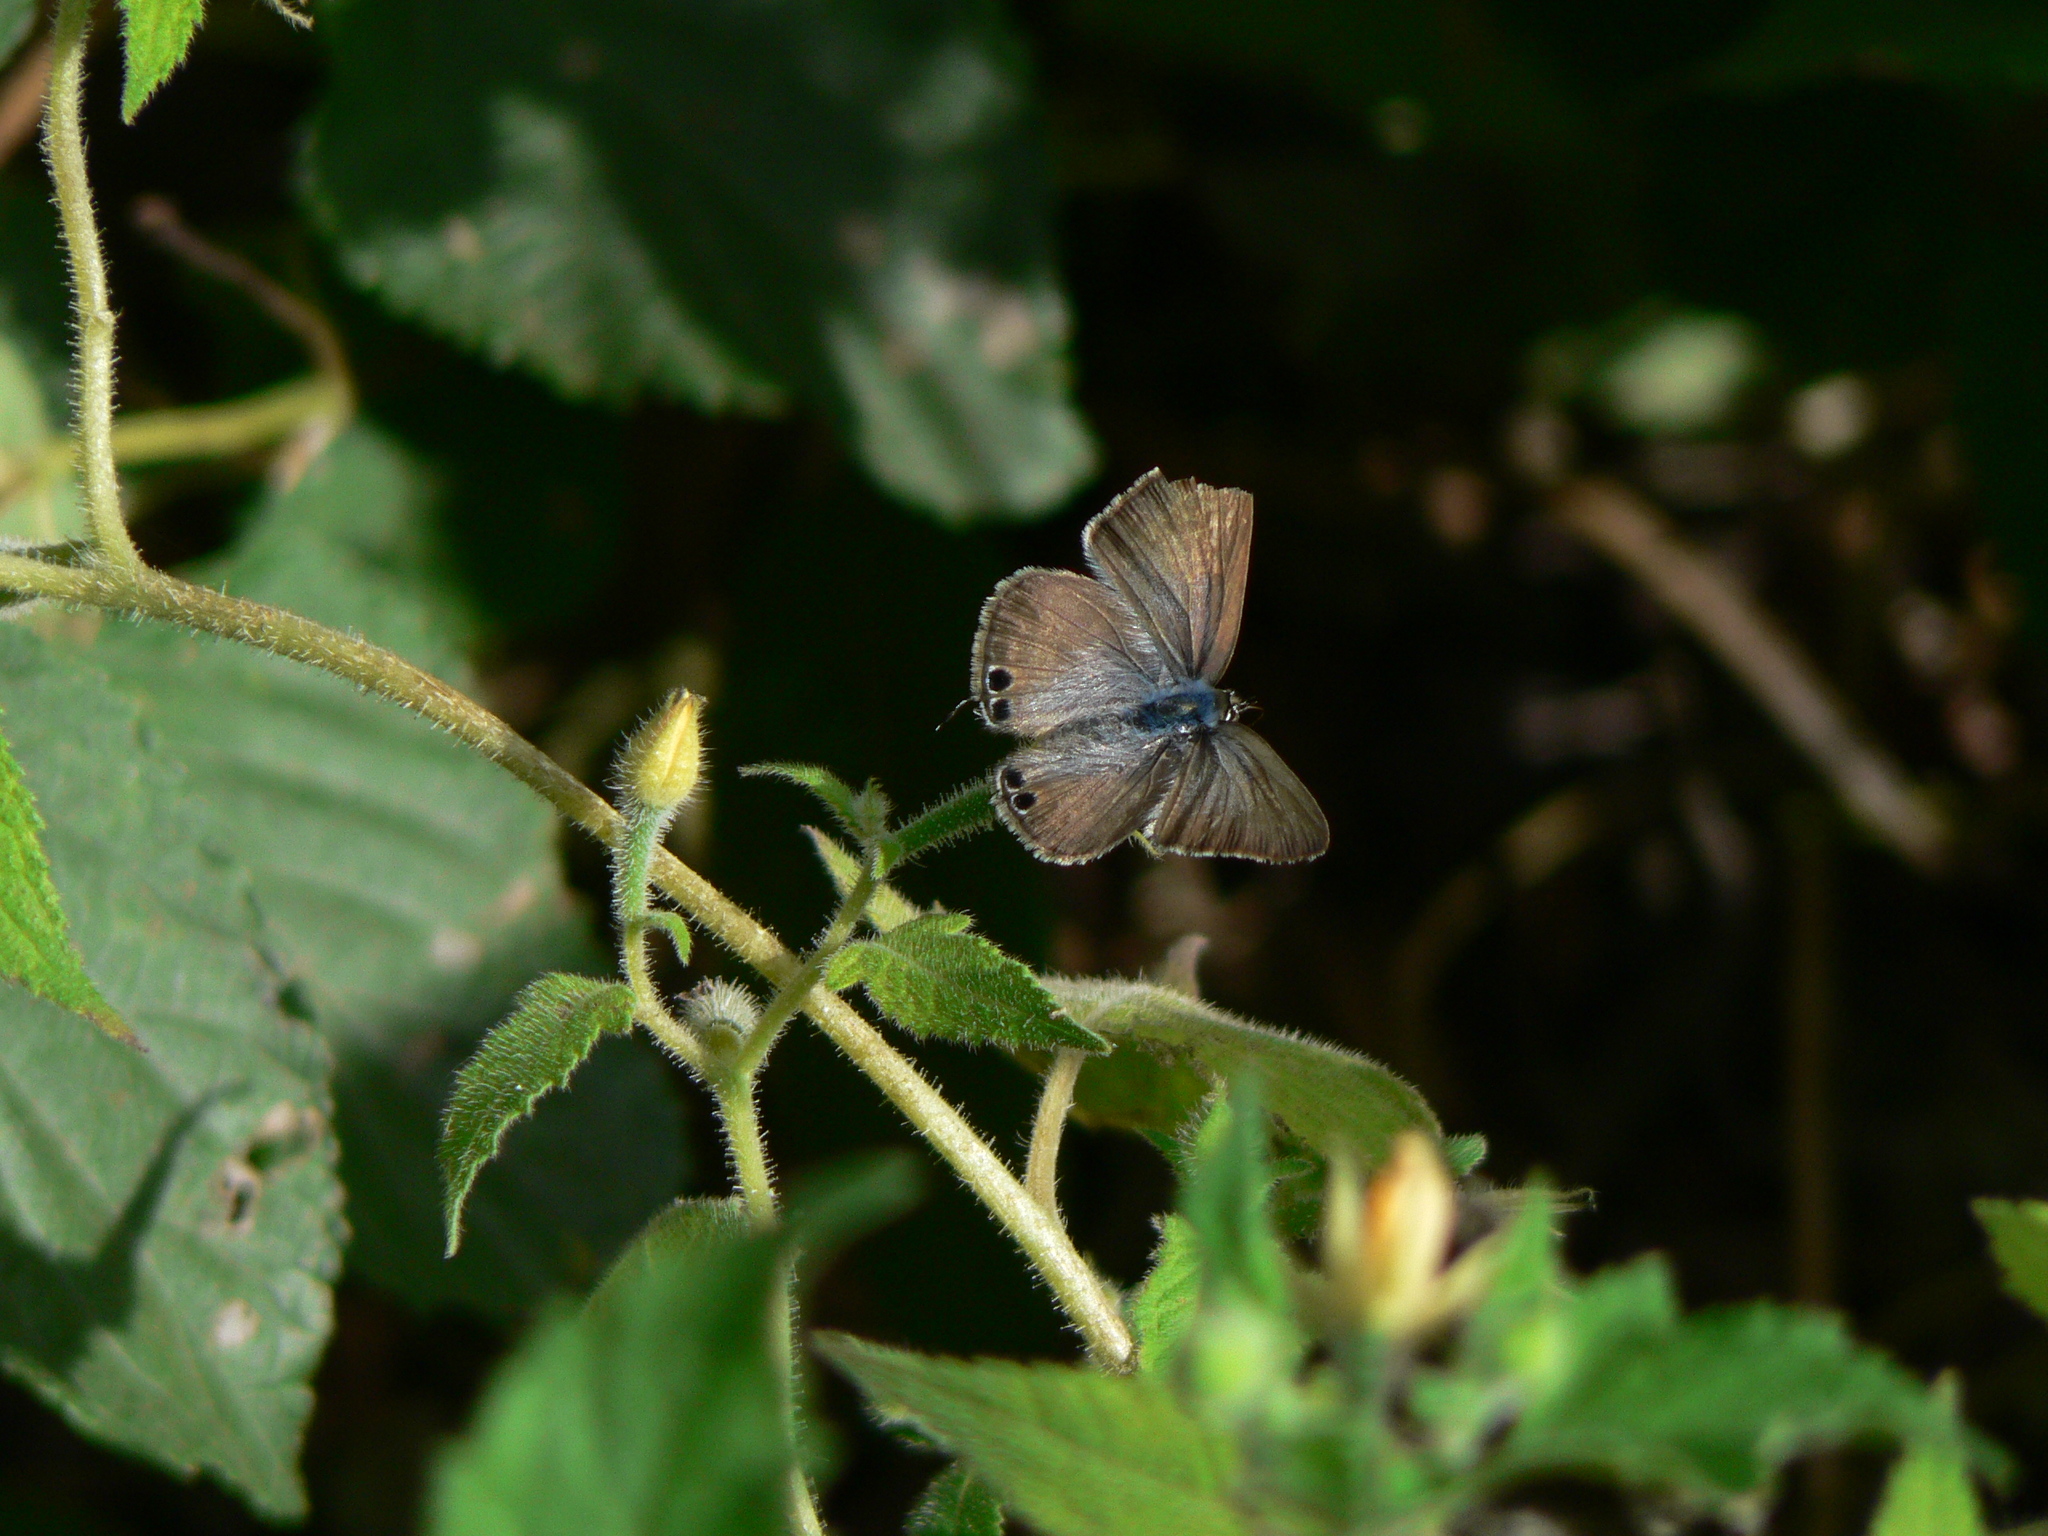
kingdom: Animalia
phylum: Arthropoda
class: Insecta
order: Lepidoptera
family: Lycaenidae
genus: Lampides
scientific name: Lampides boeticus
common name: Long-tailed blue
